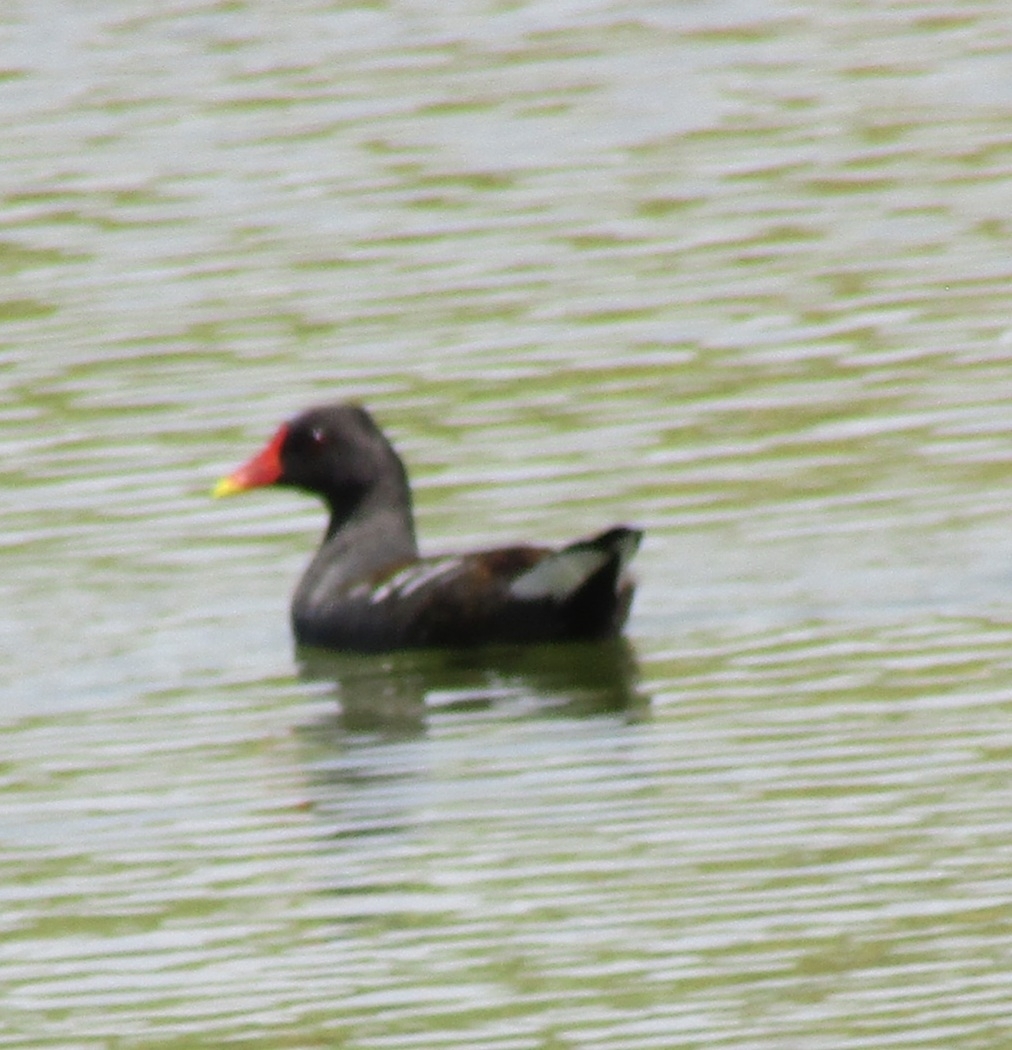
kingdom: Animalia
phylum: Chordata
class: Aves
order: Gruiformes
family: Rallidae
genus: Gallinula
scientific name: Gallinula chloropus
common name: Common moorhen
